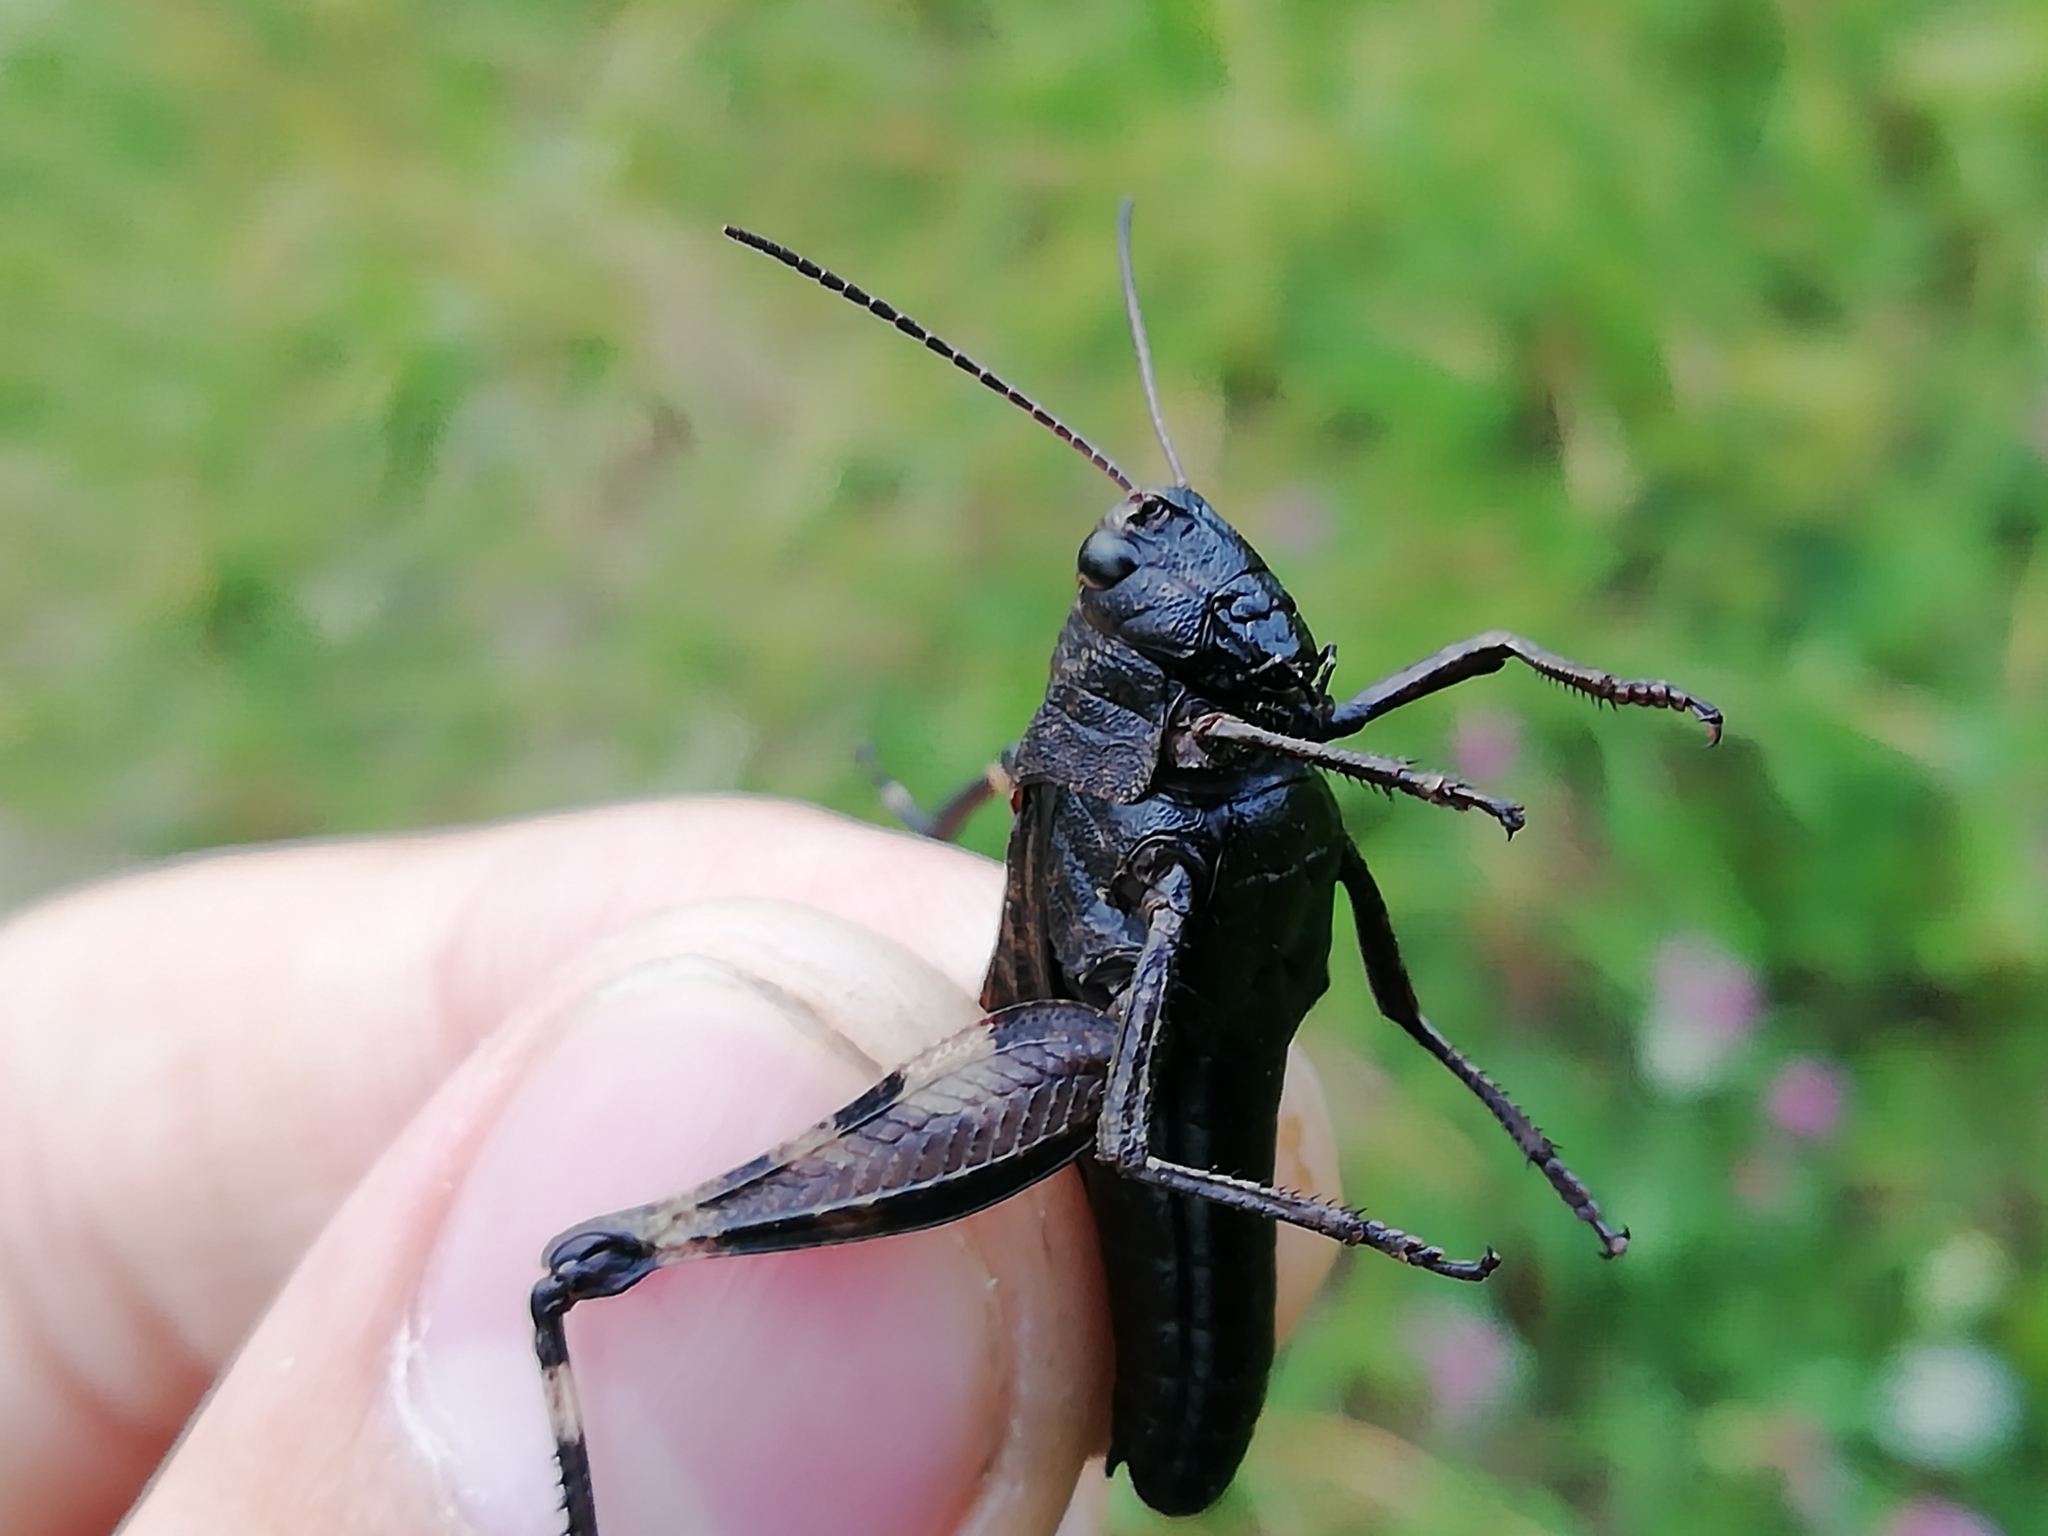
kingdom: Animalia
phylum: Arthropoda
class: Insecta
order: Orthoptera
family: Acrididae
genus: Psophus
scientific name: Psophus stridulus
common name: Rattle grasshopper
